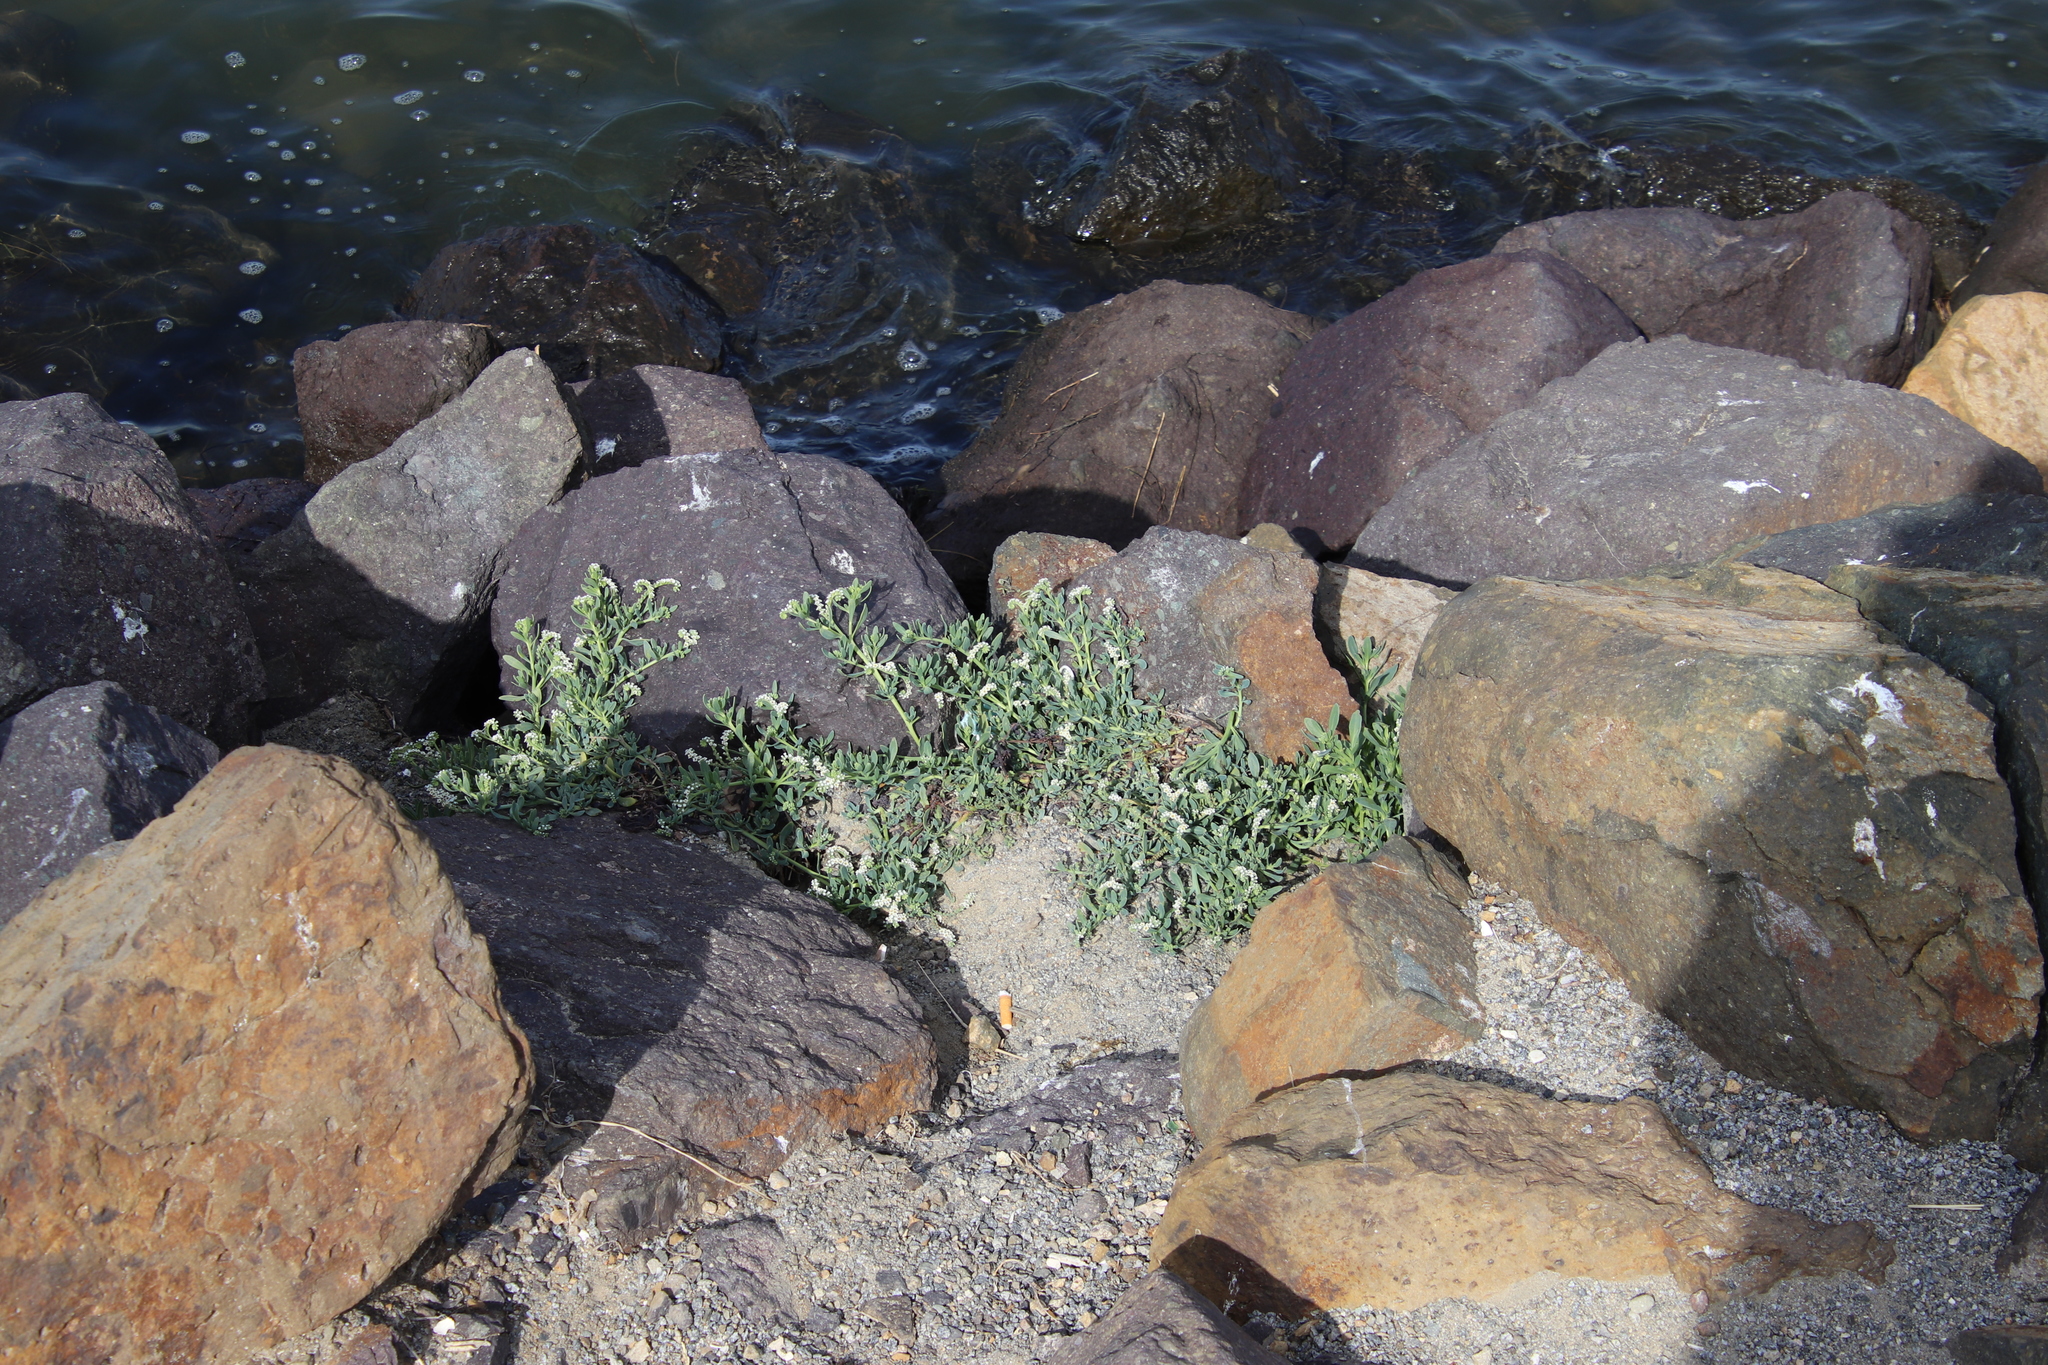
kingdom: Plantae
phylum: Tracheophyta
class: Magnoliopsida
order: Boraginales
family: Heliotropiaceae
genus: Heliotropium
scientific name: Heliotropium curassavicum
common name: Seaside heliotrope
